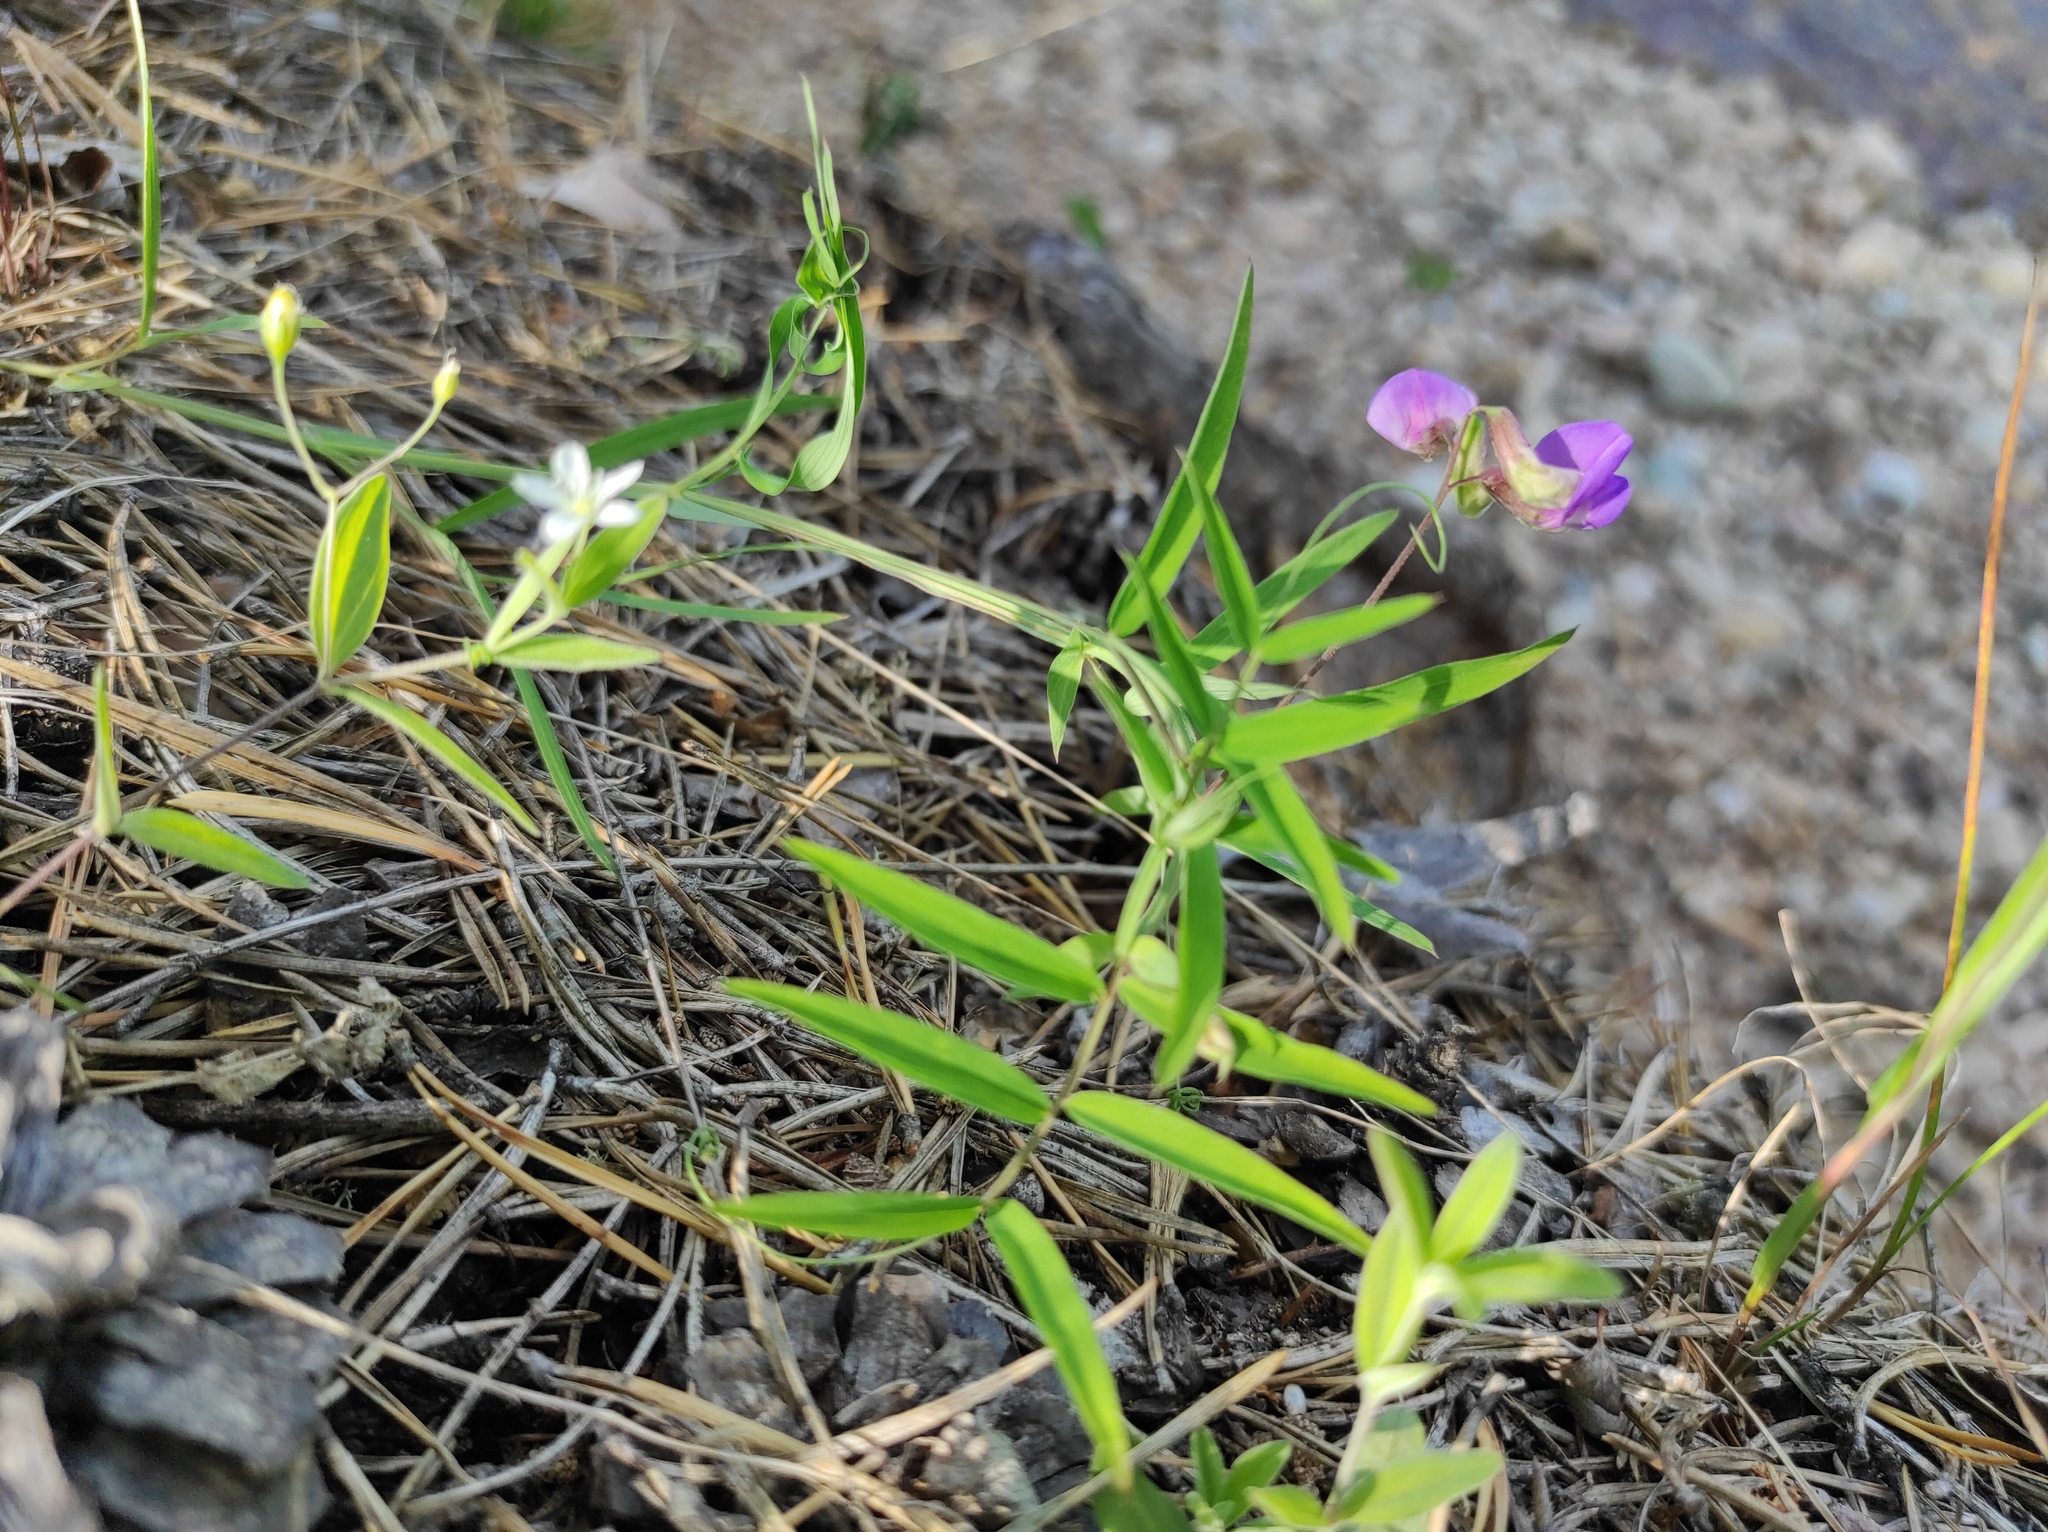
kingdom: Plantae
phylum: Tracheophyta
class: Magnoliopsida
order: Caryophyllales
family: Caryophyllaceae
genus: Moehringia
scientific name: Moehringia lateriflora
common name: Blunt-leaved sandwort
